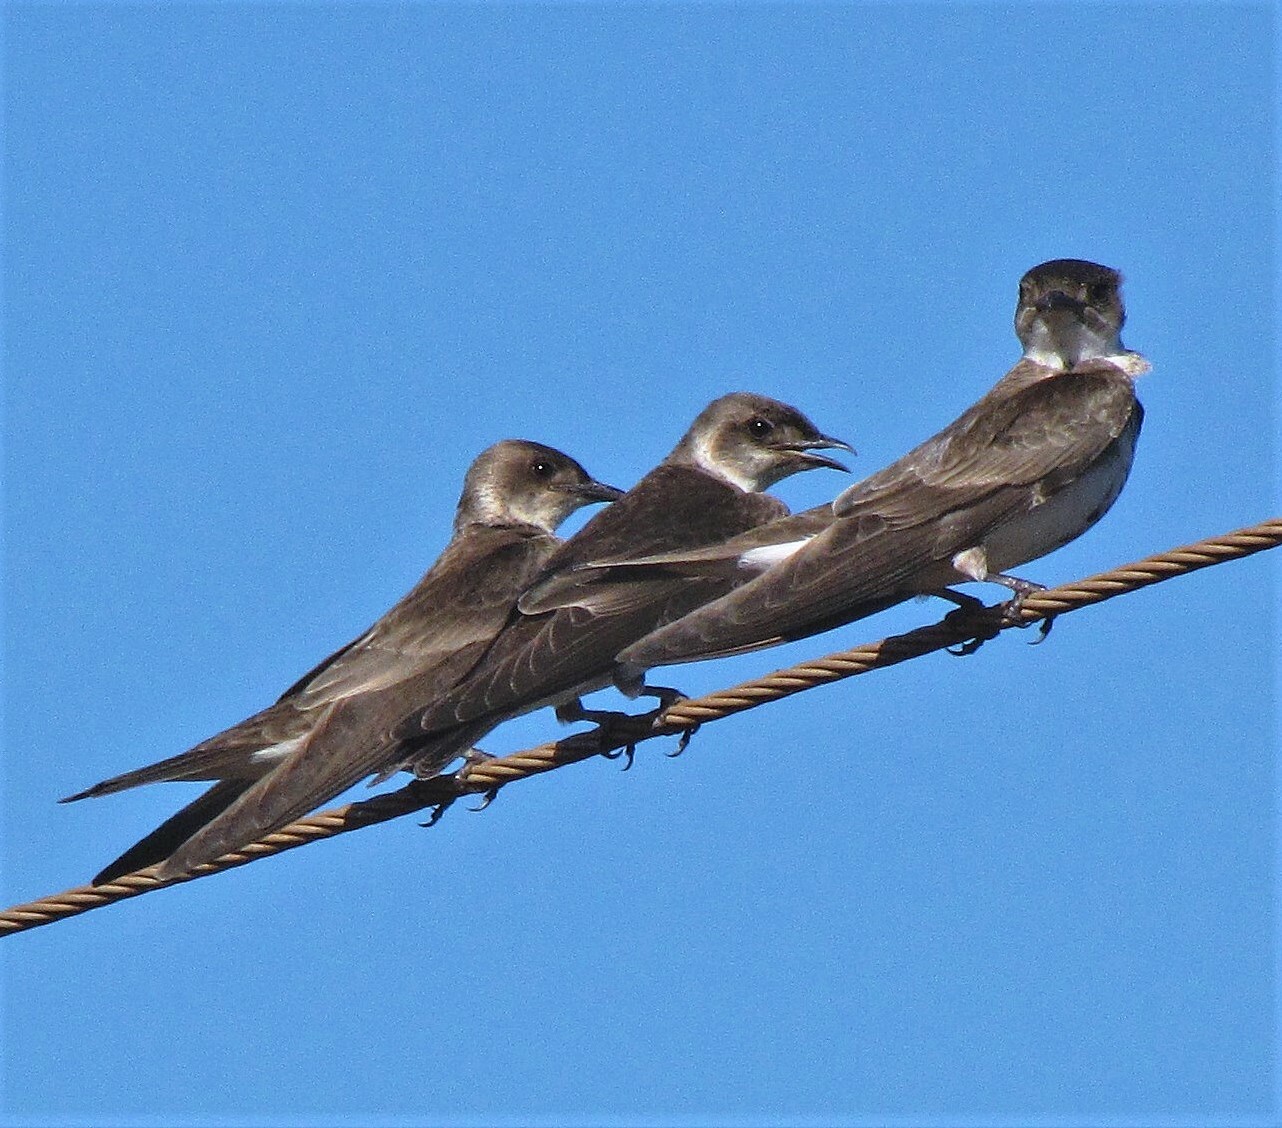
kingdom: Animalia
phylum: Chordata
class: Aves
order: Passeriformes
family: Hirundinidae
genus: Progne
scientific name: Progne tapera
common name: Brown-chested martin
